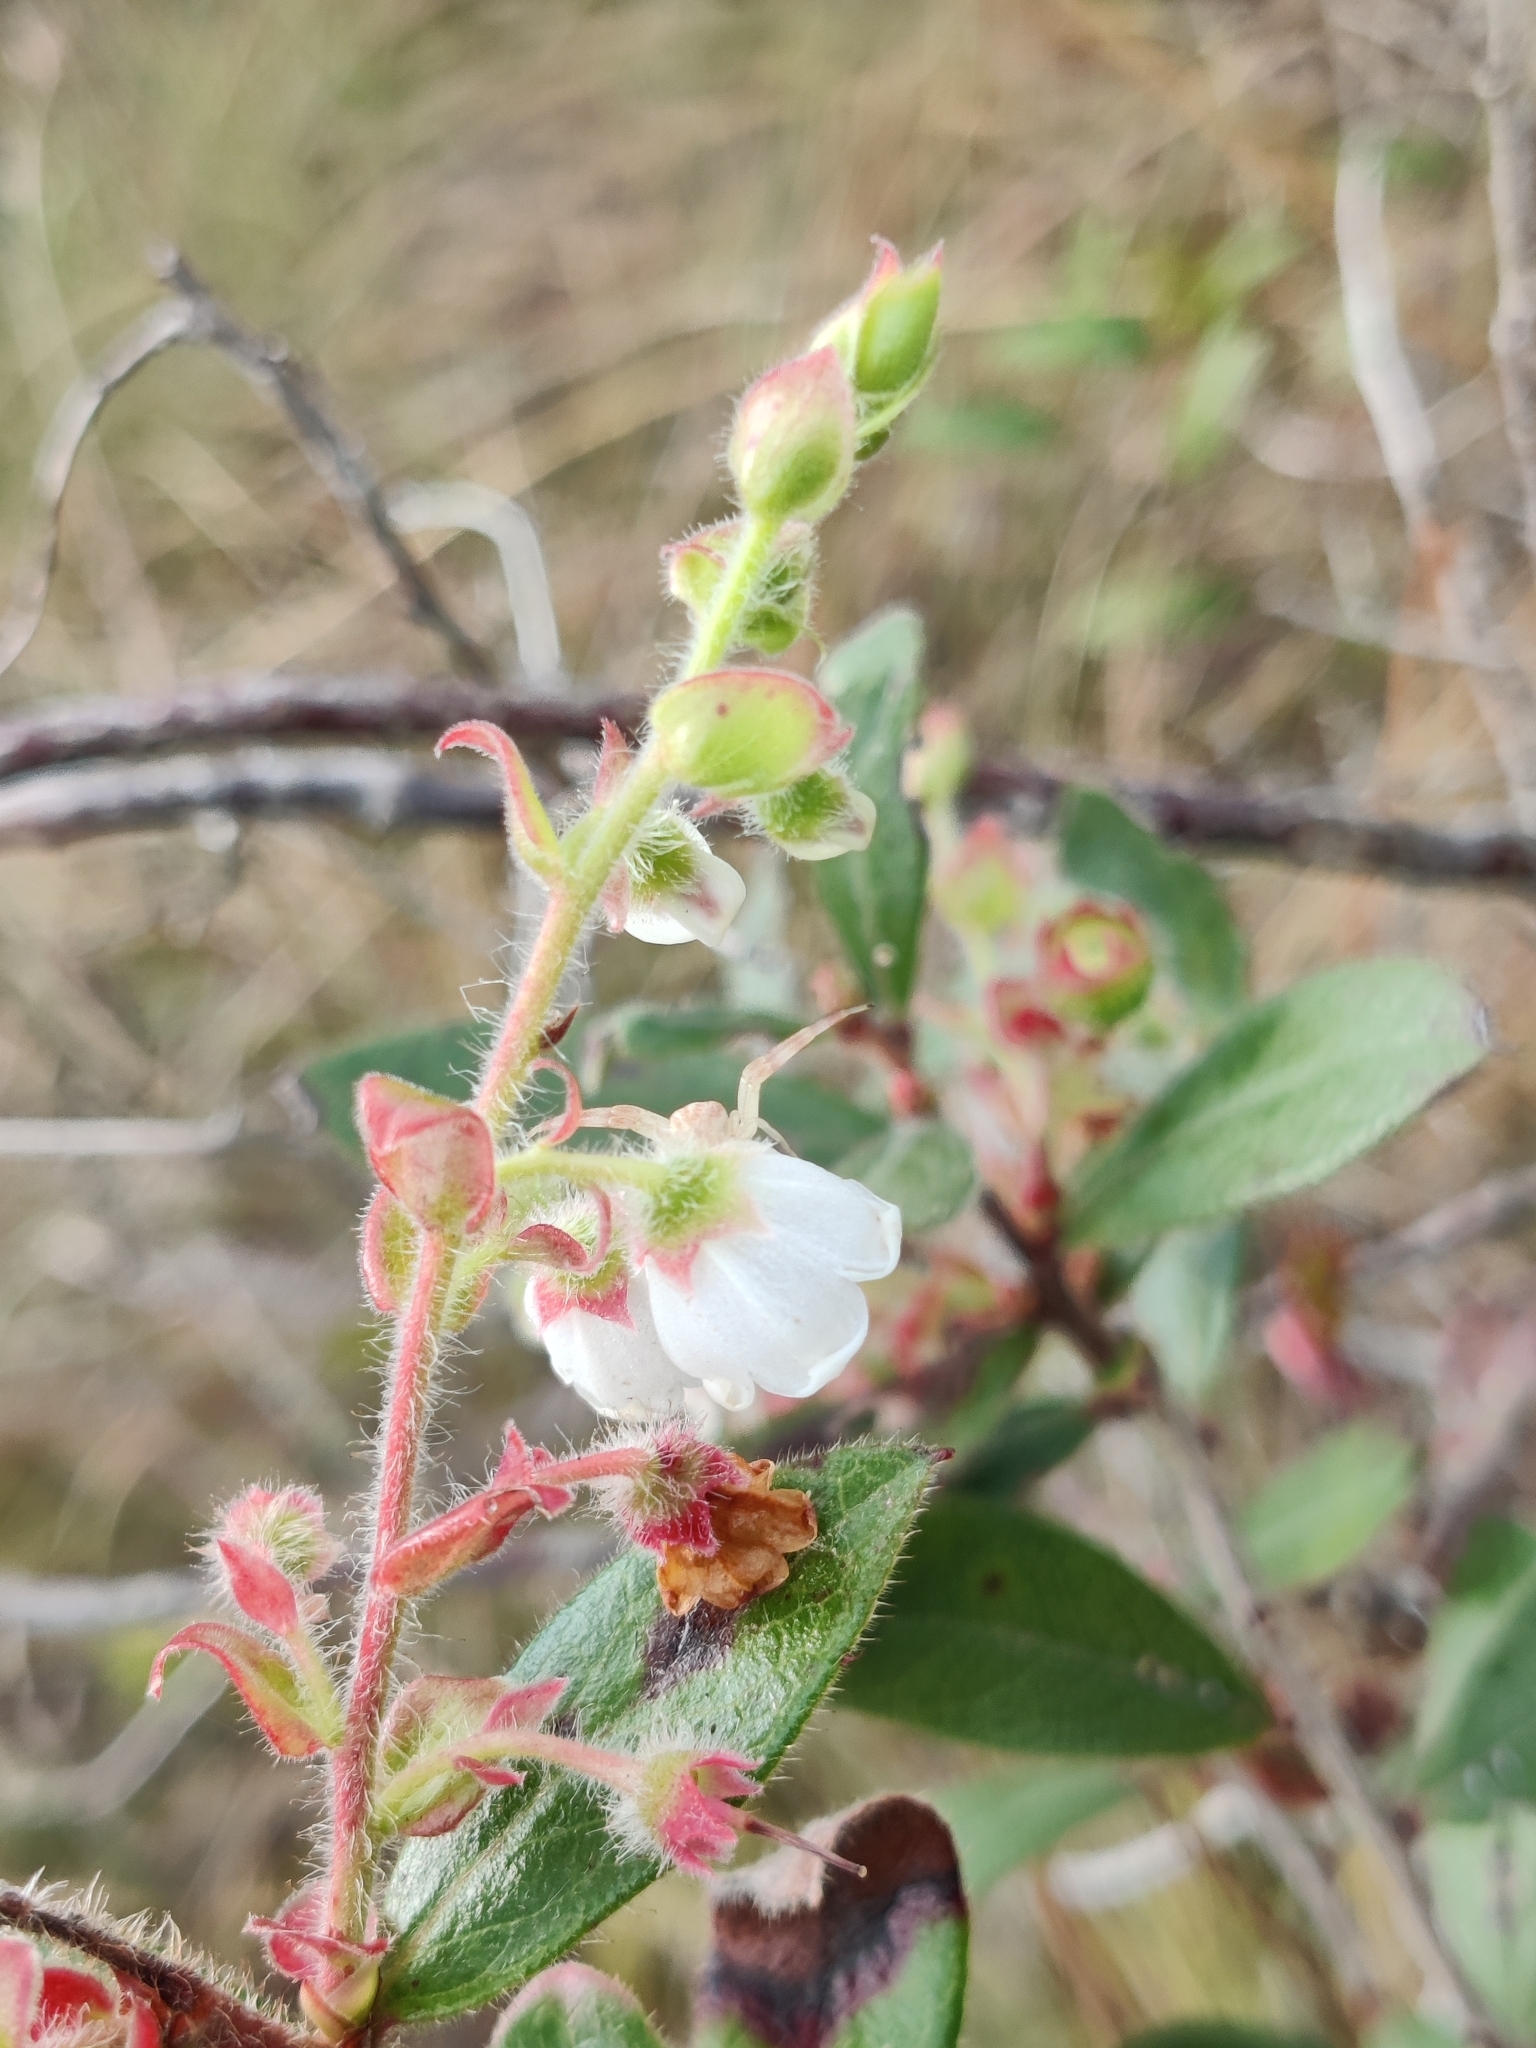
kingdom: Plantae
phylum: Tracheophyta
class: Magnoliopsida
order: Ericales
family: Ericaceae
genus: Gaylussacia
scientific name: Gaylussacia mosieri
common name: Hirsute huckleberry
